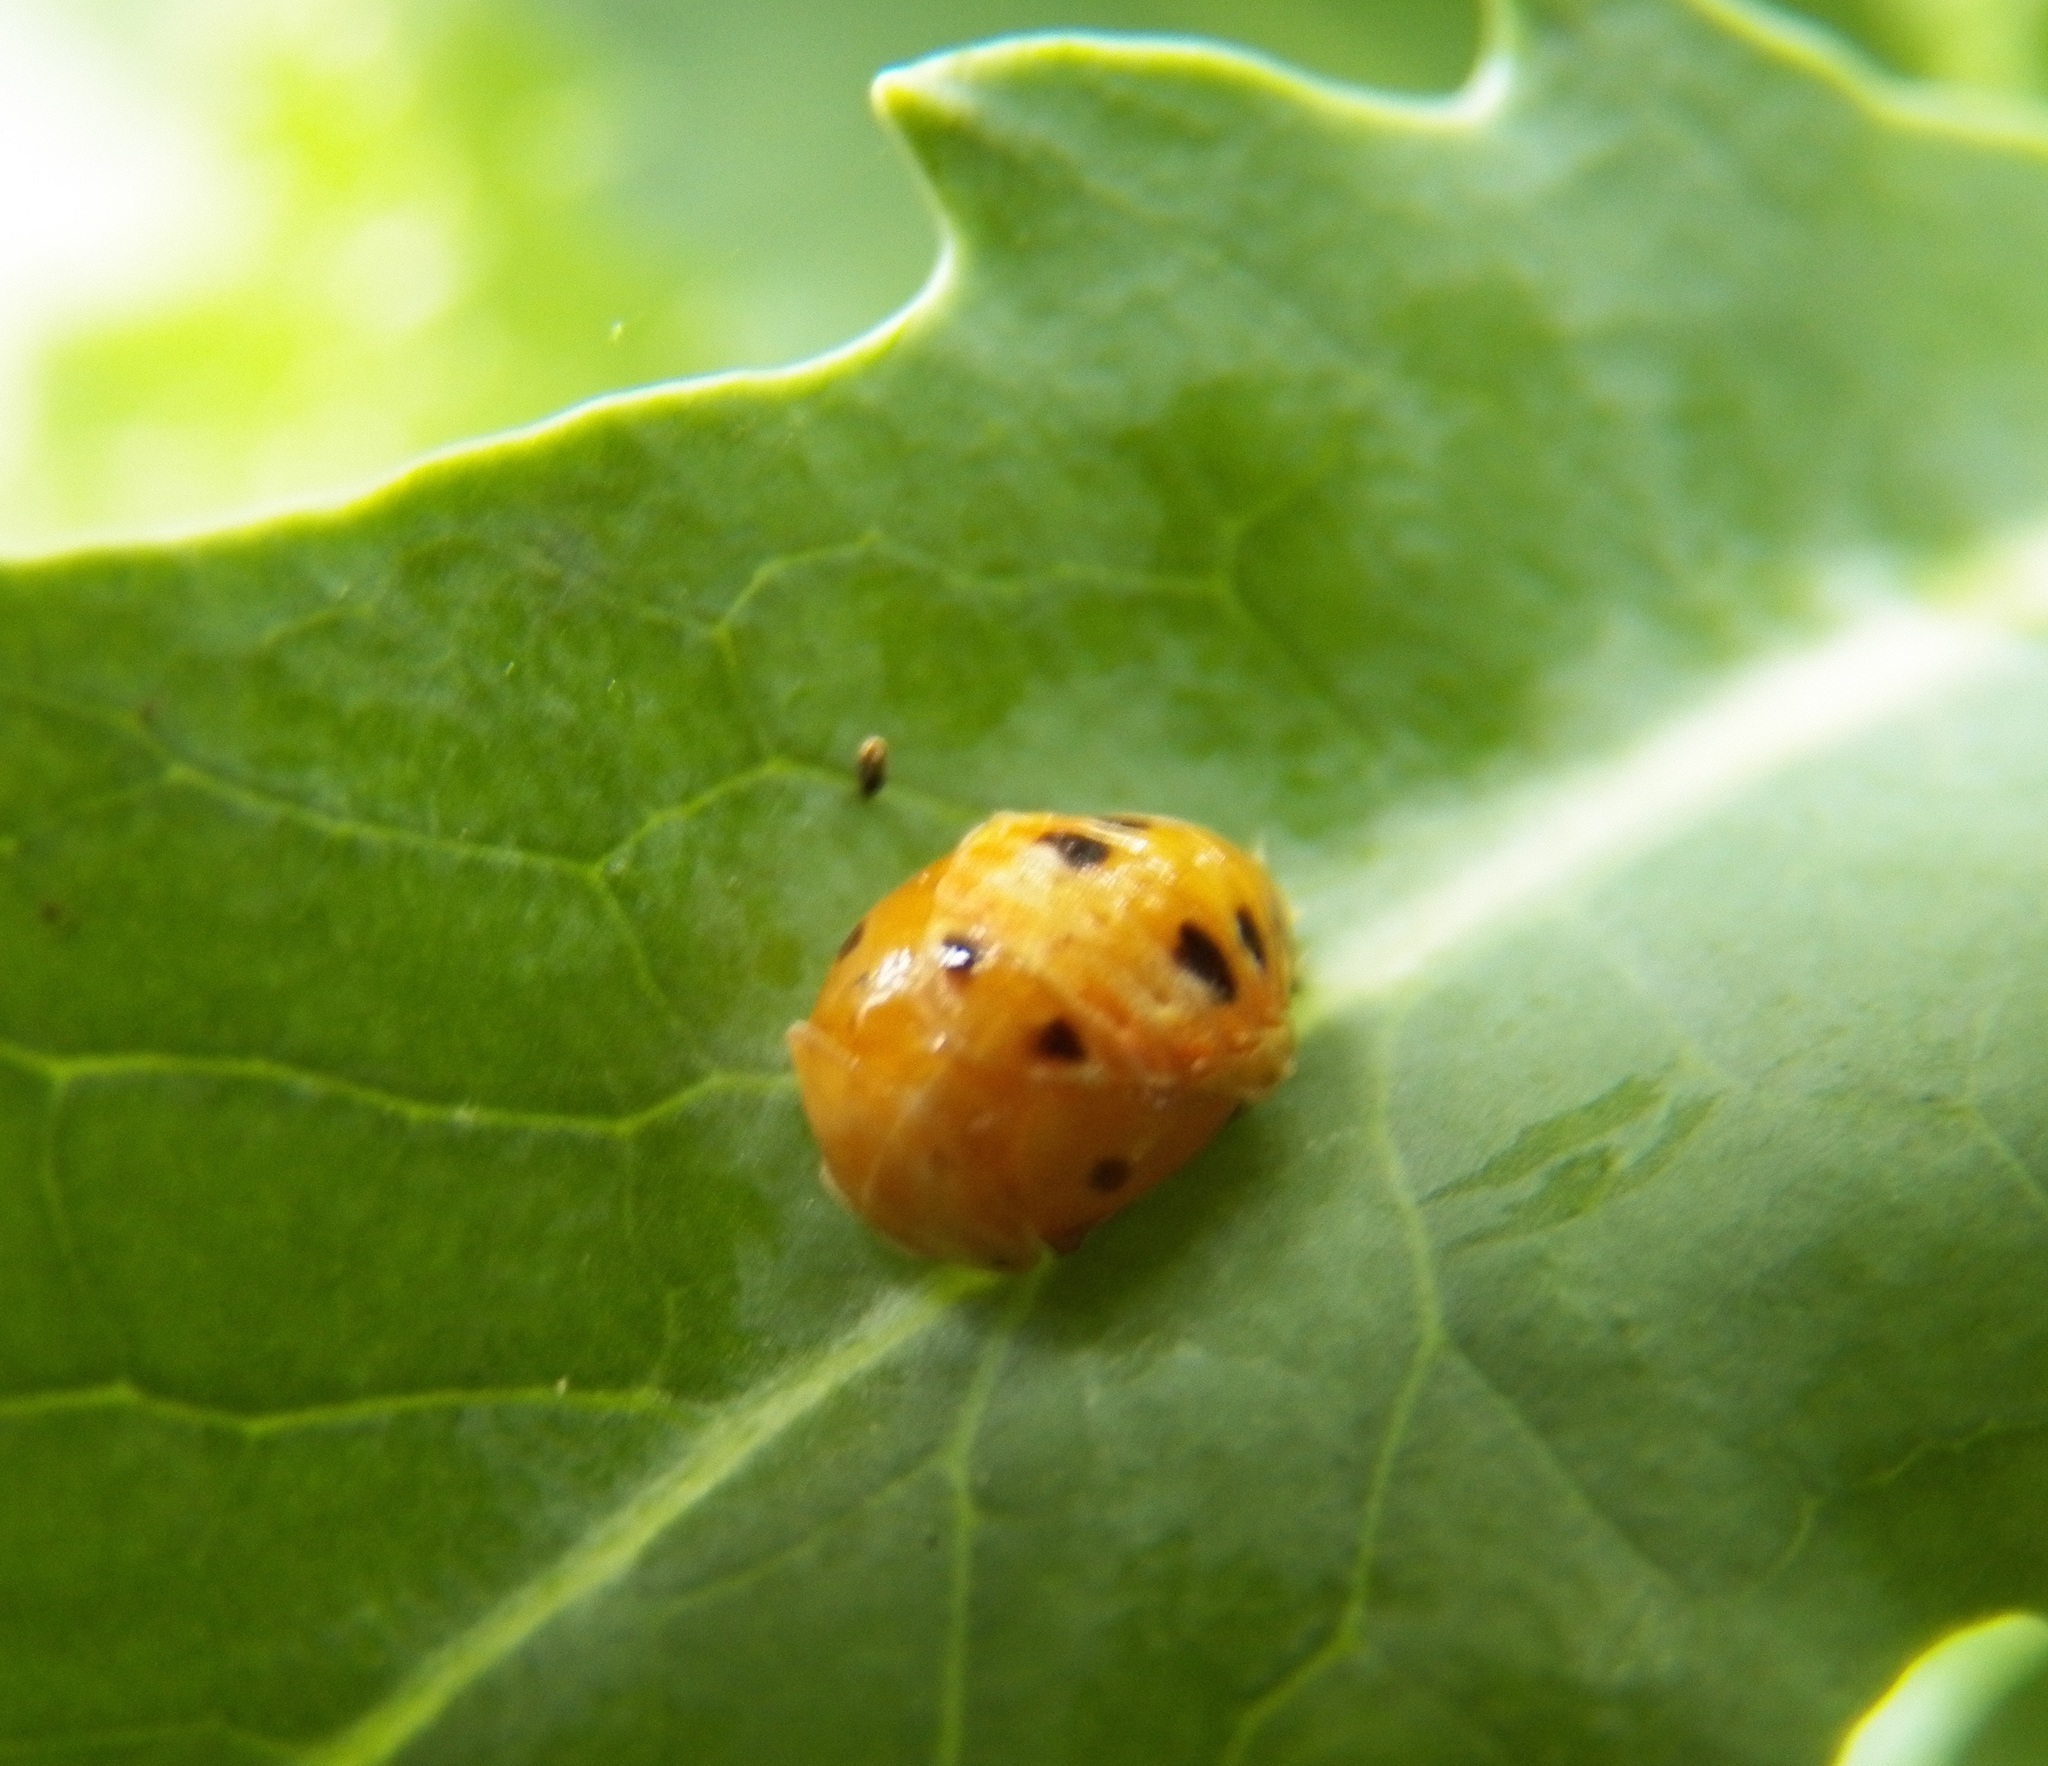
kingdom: Animalia
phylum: Arthropoda
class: Insecta
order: Coleoptera
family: Coccinellidae
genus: Harmonia
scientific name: Harmonia axyridis
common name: Harlequin ladybird
